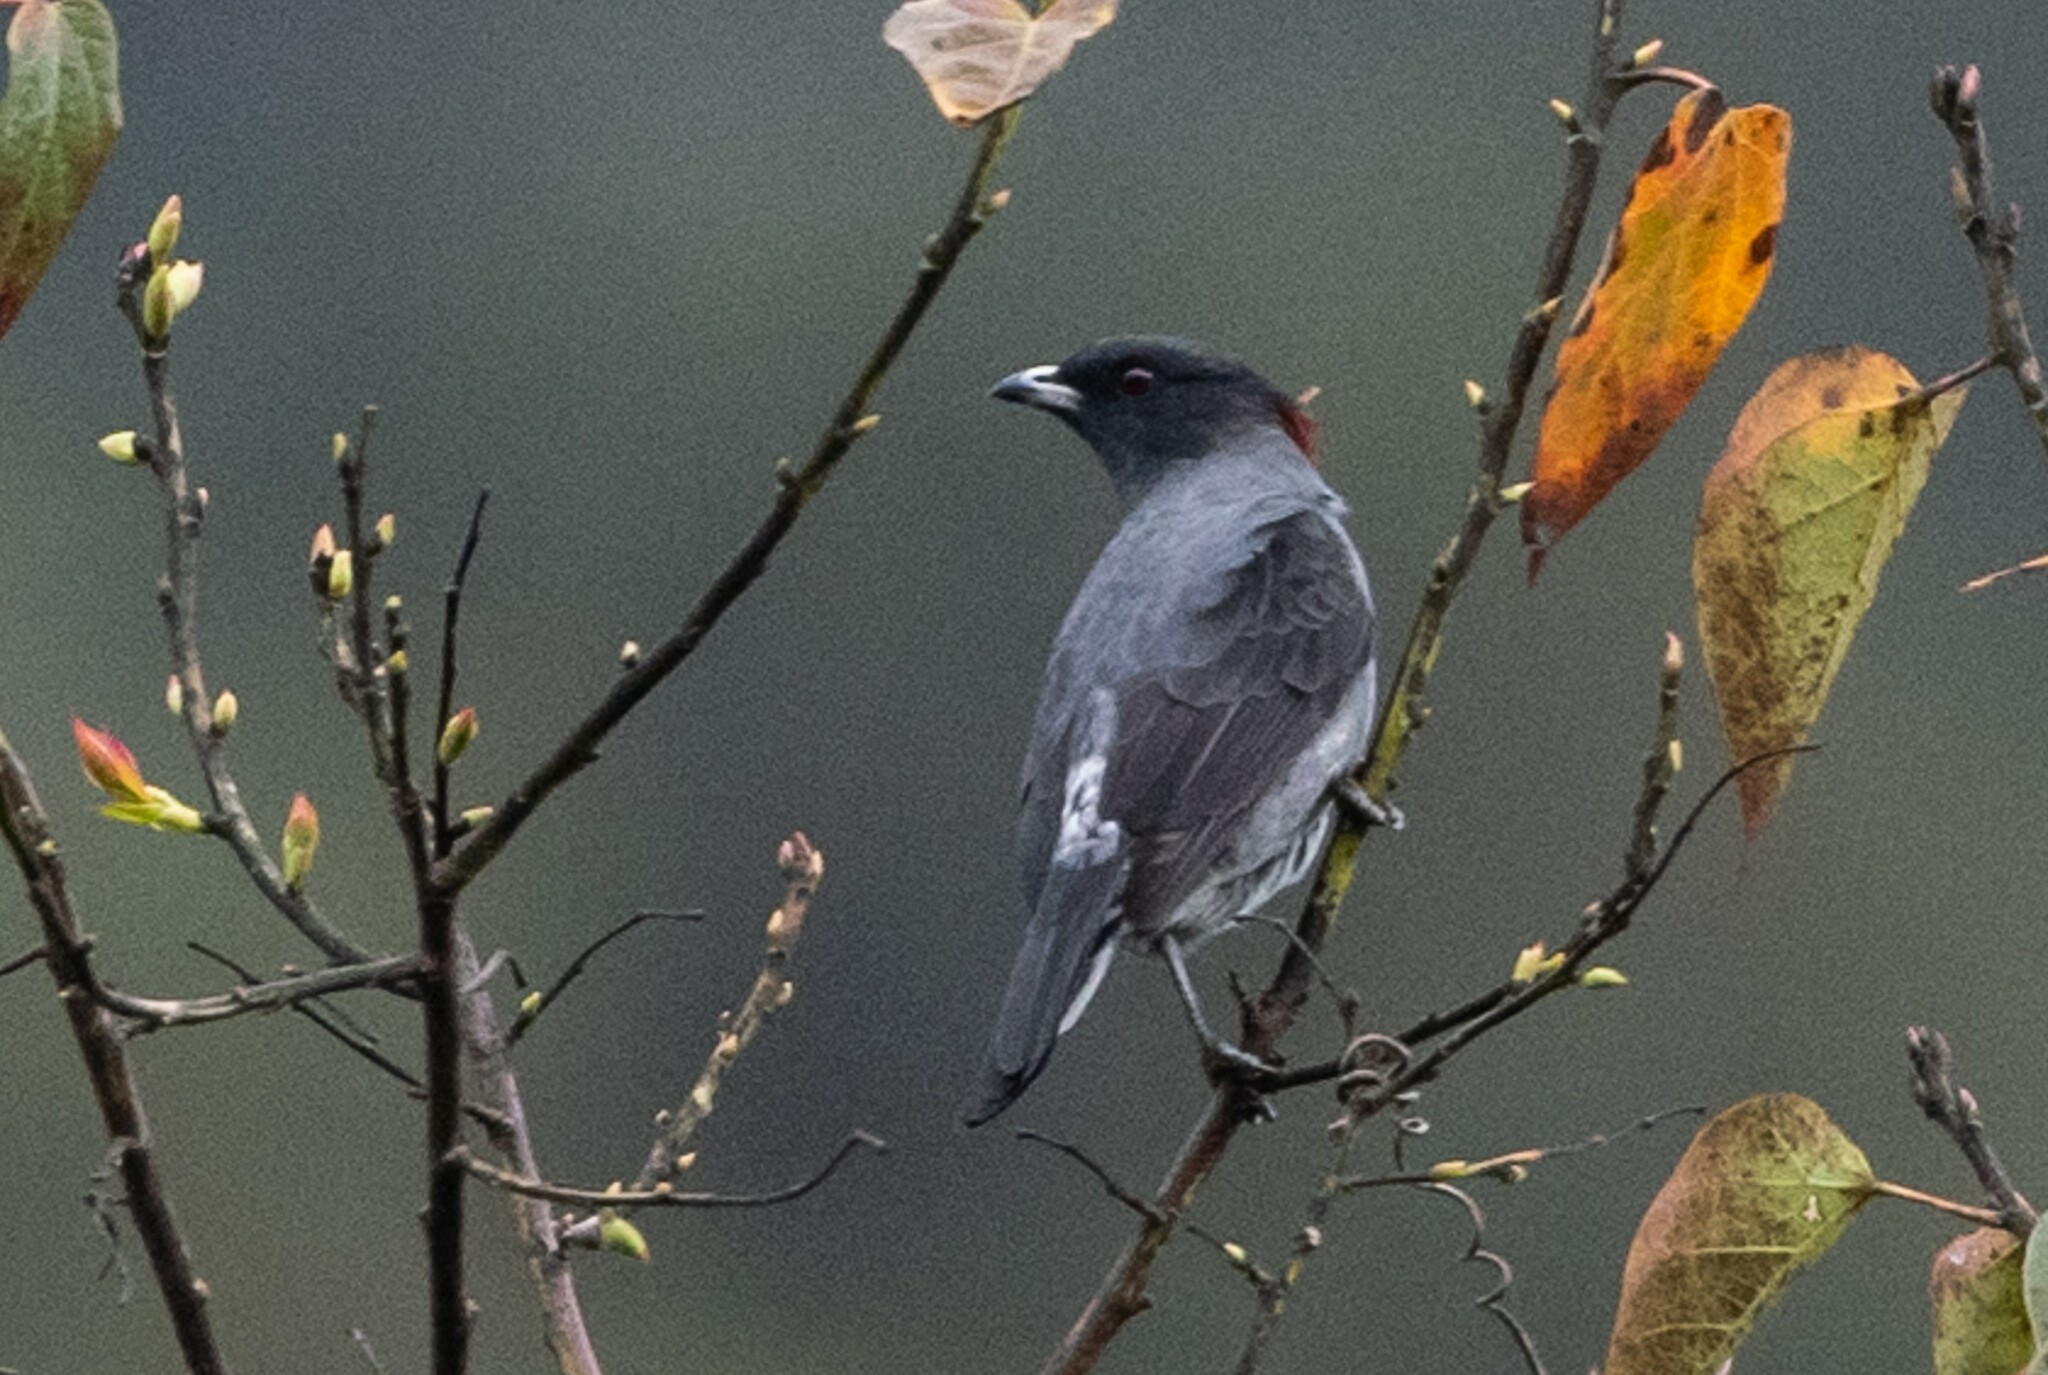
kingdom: Animalia
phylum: Chordata
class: Aves
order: Passeriformes
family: Cotingidae
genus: Ampelion
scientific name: Ampelion rubrocristatus
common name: Red-crested cotinga
